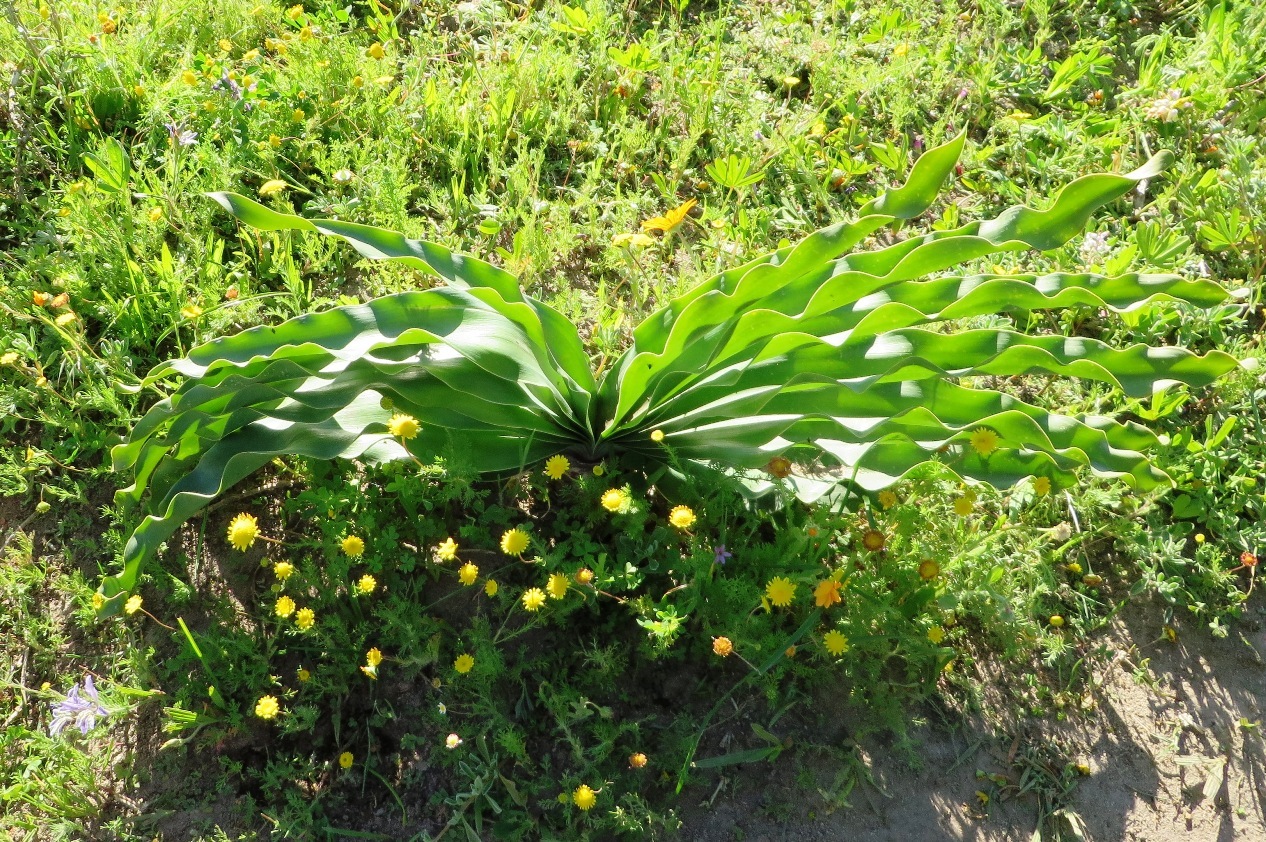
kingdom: Plantae
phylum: Tracheophyta
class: Liliopsida
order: Asparagales
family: Amaryllidaceae
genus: Boophone
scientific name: Boophone haemanthoides
